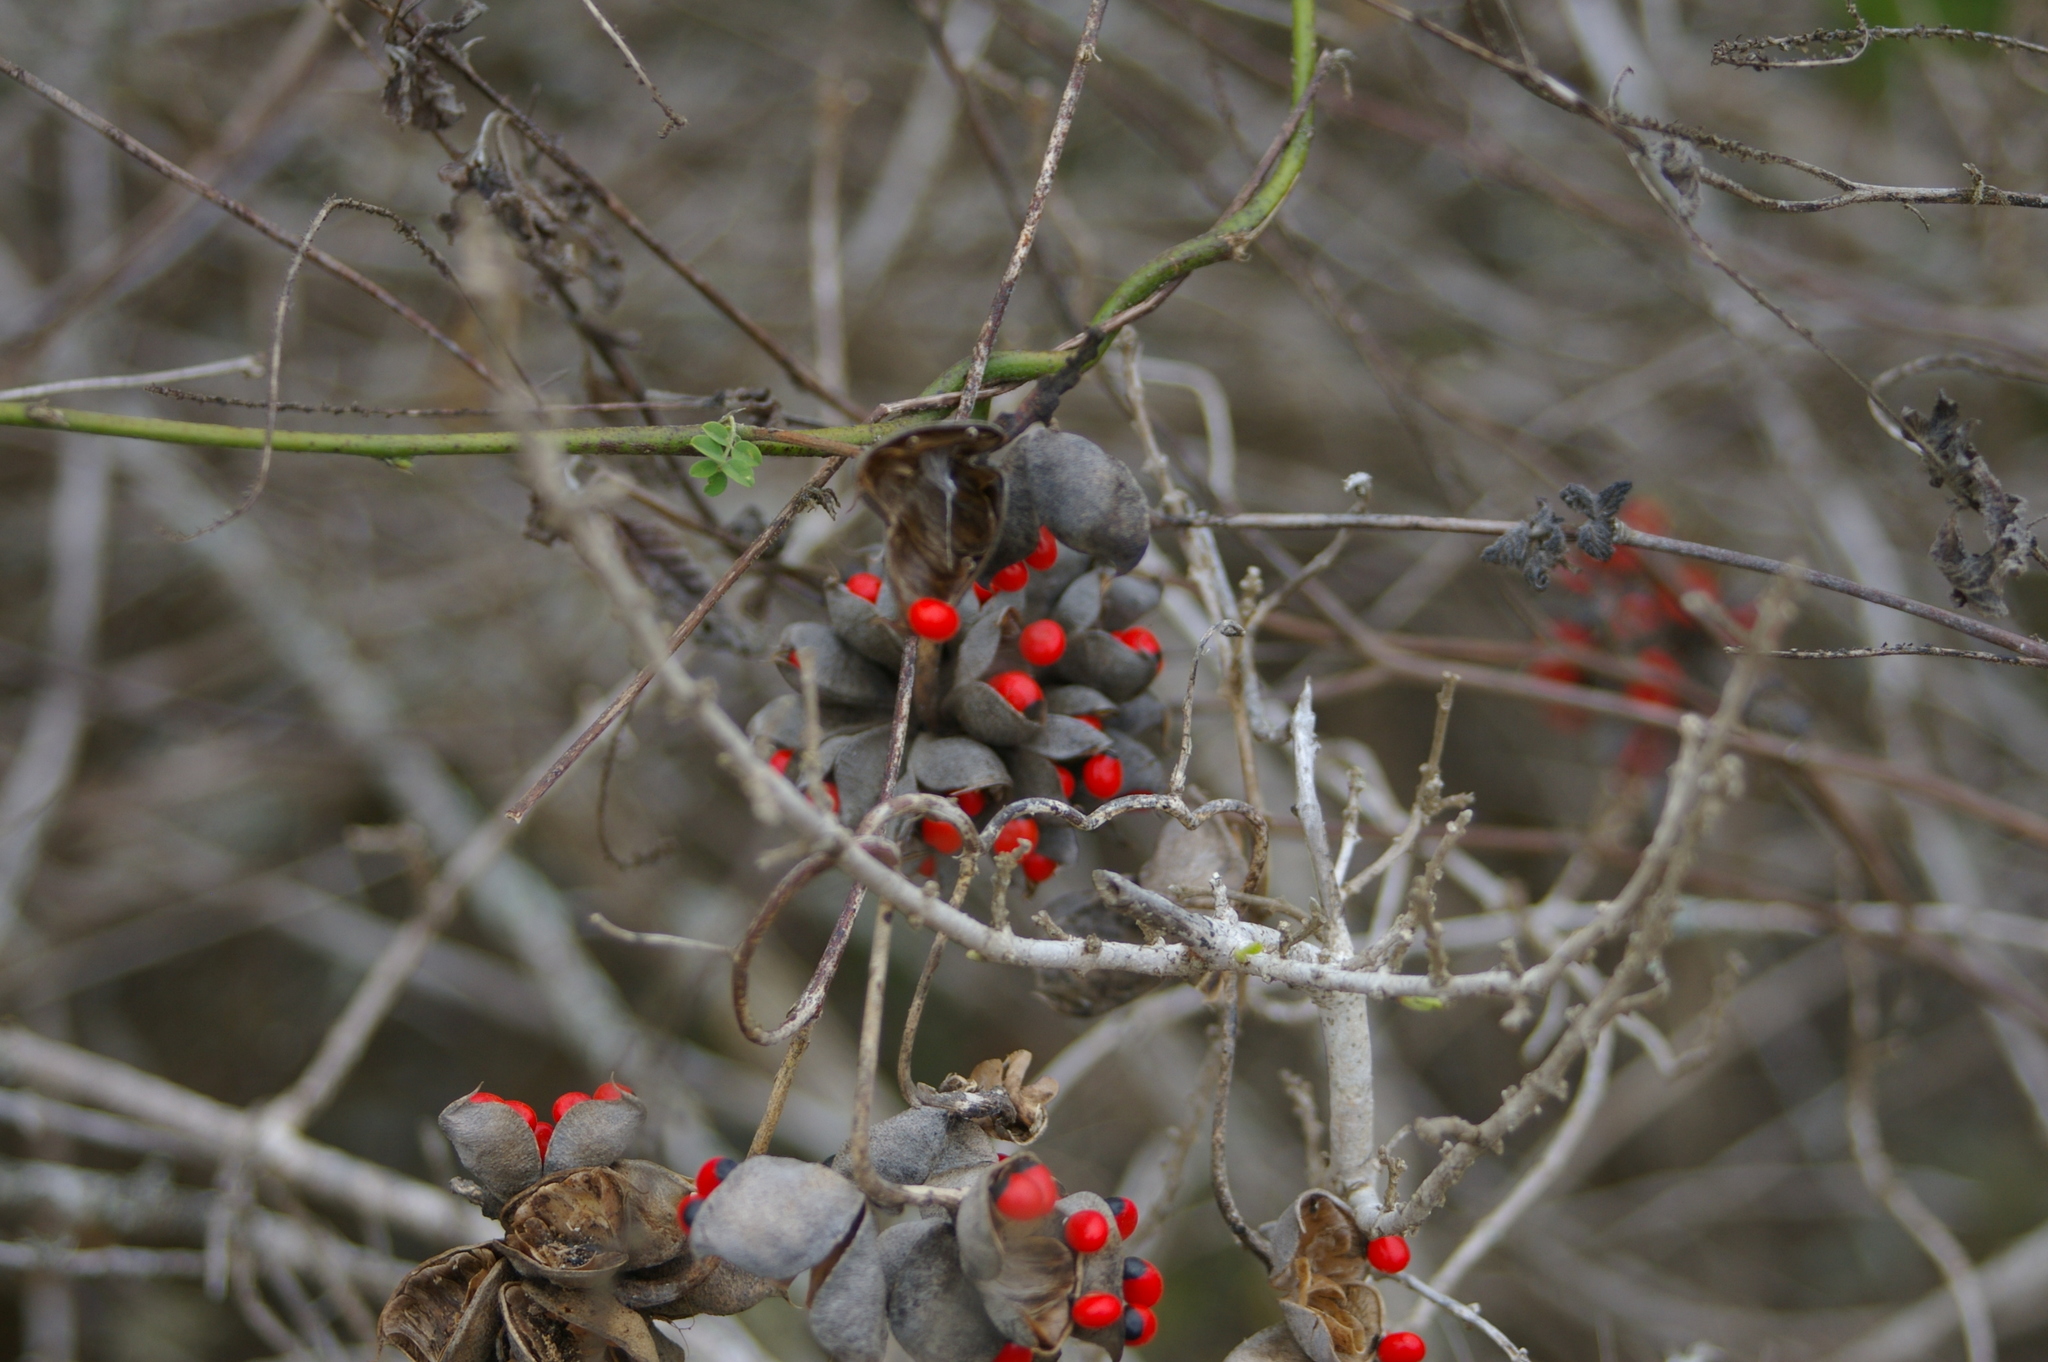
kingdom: Plantae
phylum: Tracheophyta
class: Magnoliopsida
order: Fabales
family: Fabaceae
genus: Abrus
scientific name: Abrus precatorius
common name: Rosarypea
